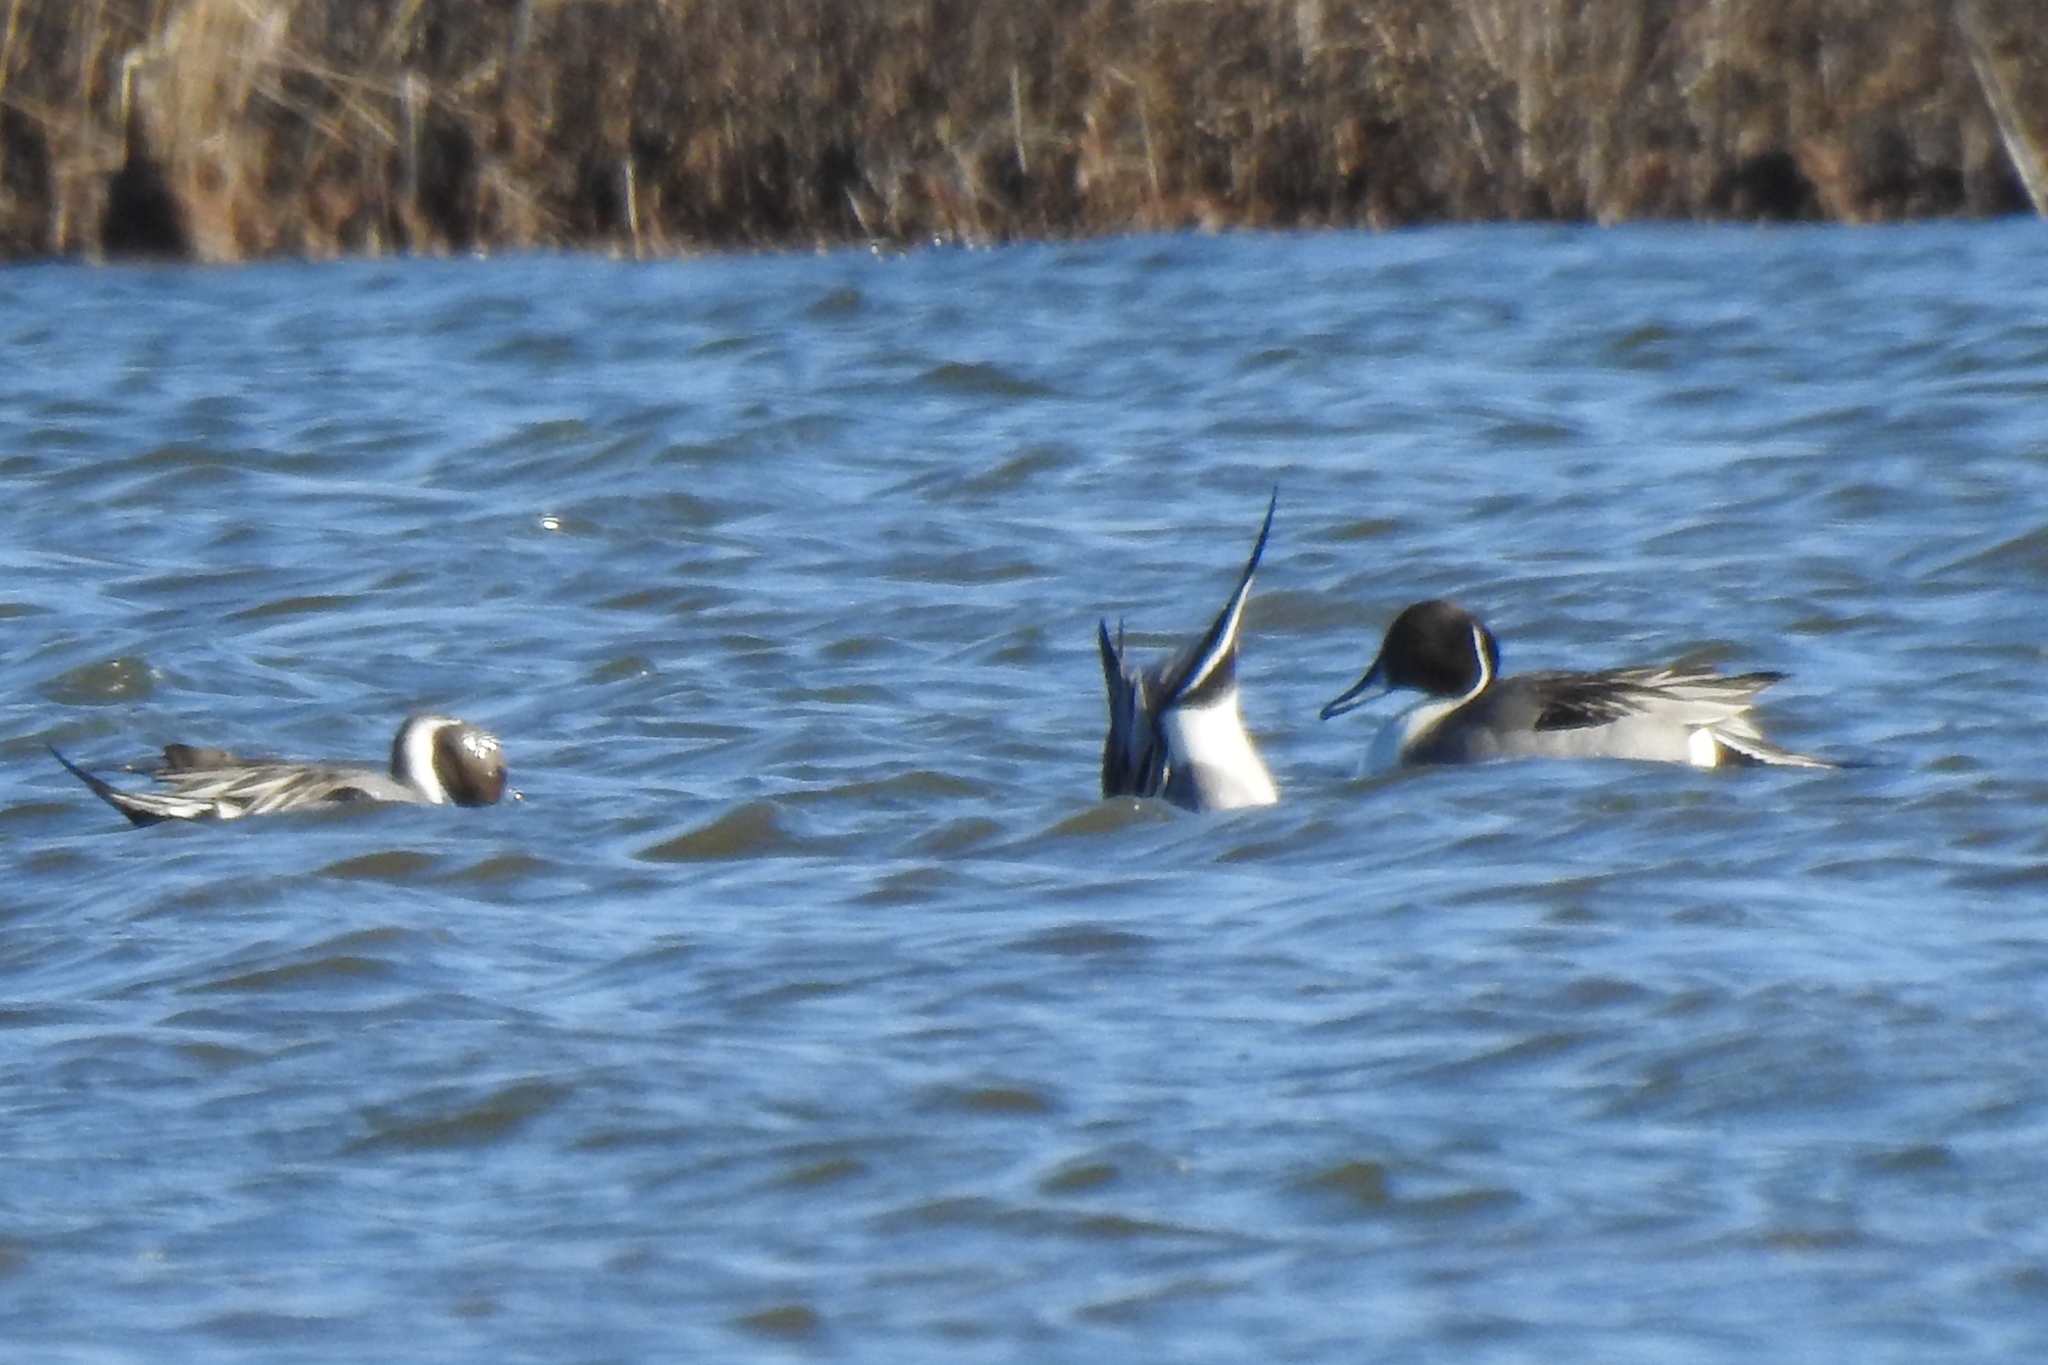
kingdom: Animalia
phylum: Chordata
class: Aves
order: Anseriformes
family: Anatidae
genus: Anas
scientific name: Anas acuta
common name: Northern pintail
